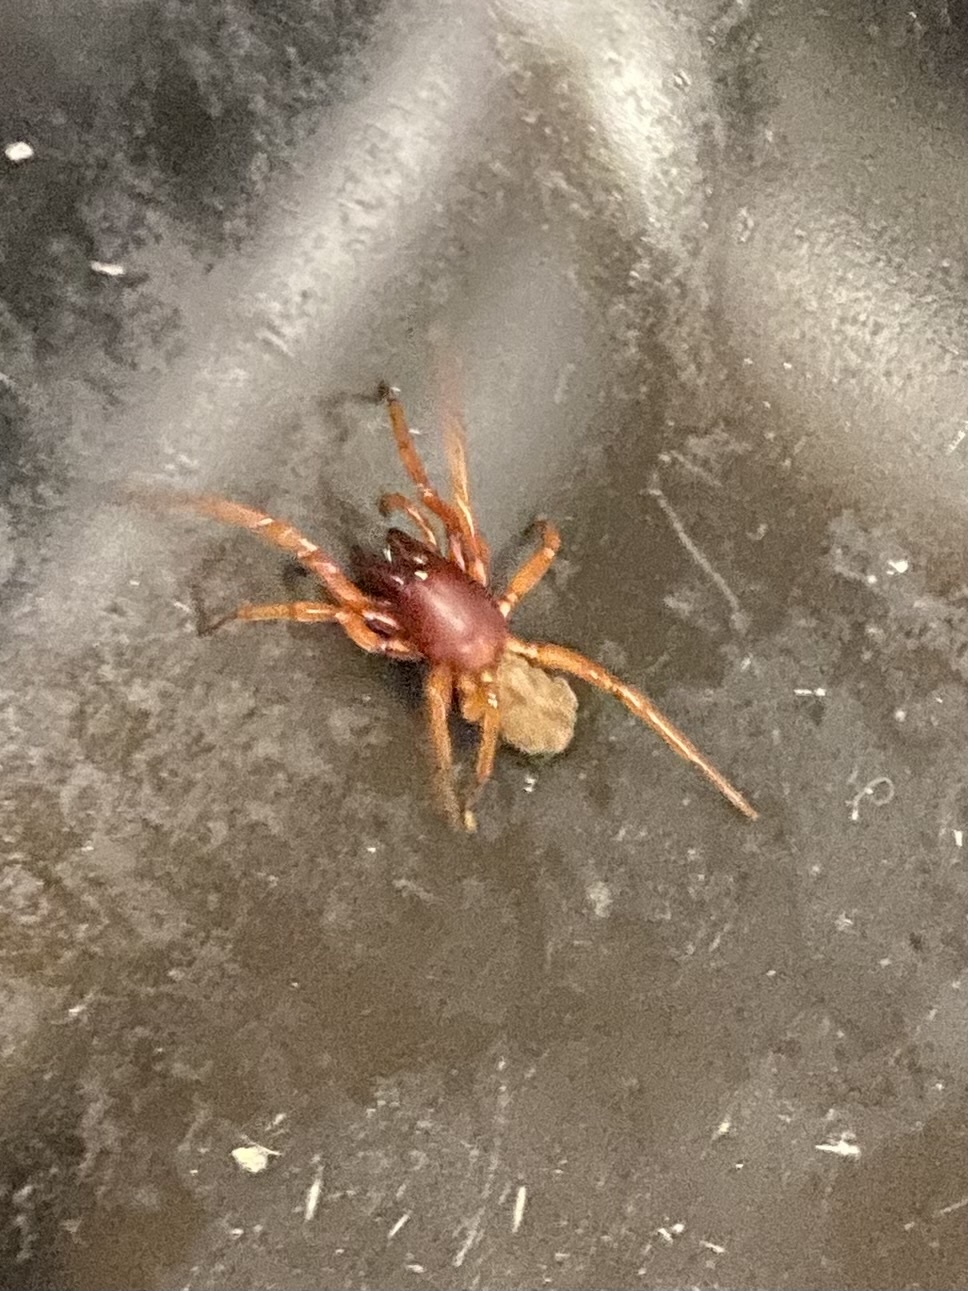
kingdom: Animalia
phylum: Arthropoda
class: Arachnida
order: Araneae
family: Dysderidae
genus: Dysdera
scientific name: Dysdera crocata
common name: Woodlouse spider
